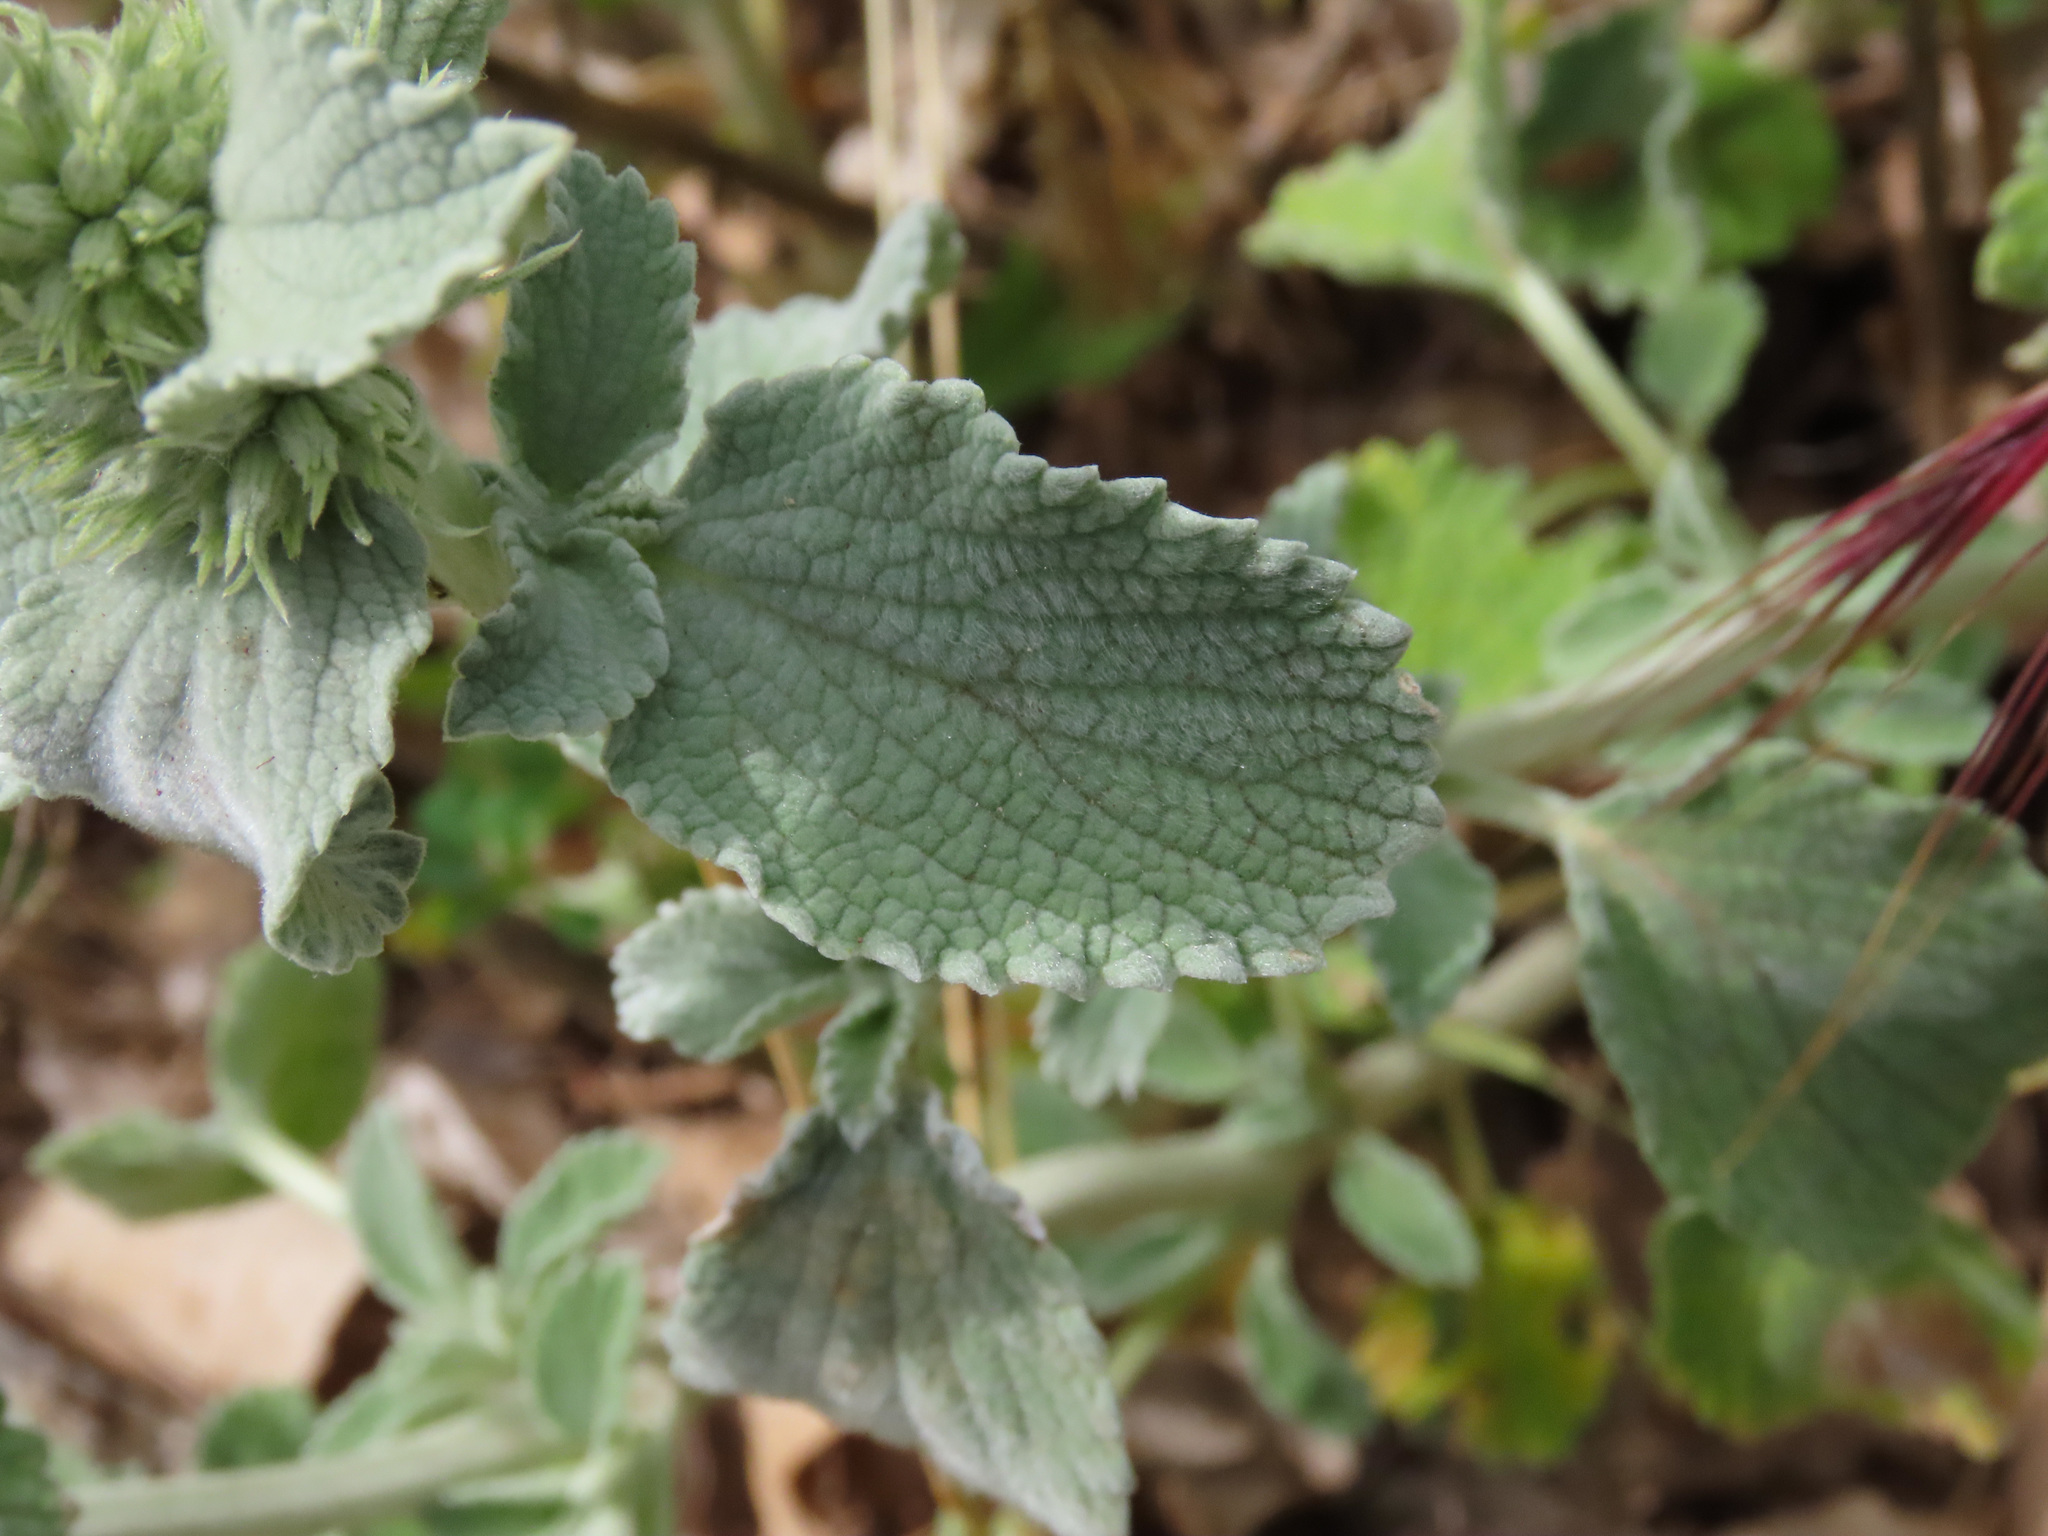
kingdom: Plantae
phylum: Tracheophyta
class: Magnoliopsida
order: Lamiales
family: Lamiaceae
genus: Marrubium
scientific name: Marrubium incanum
